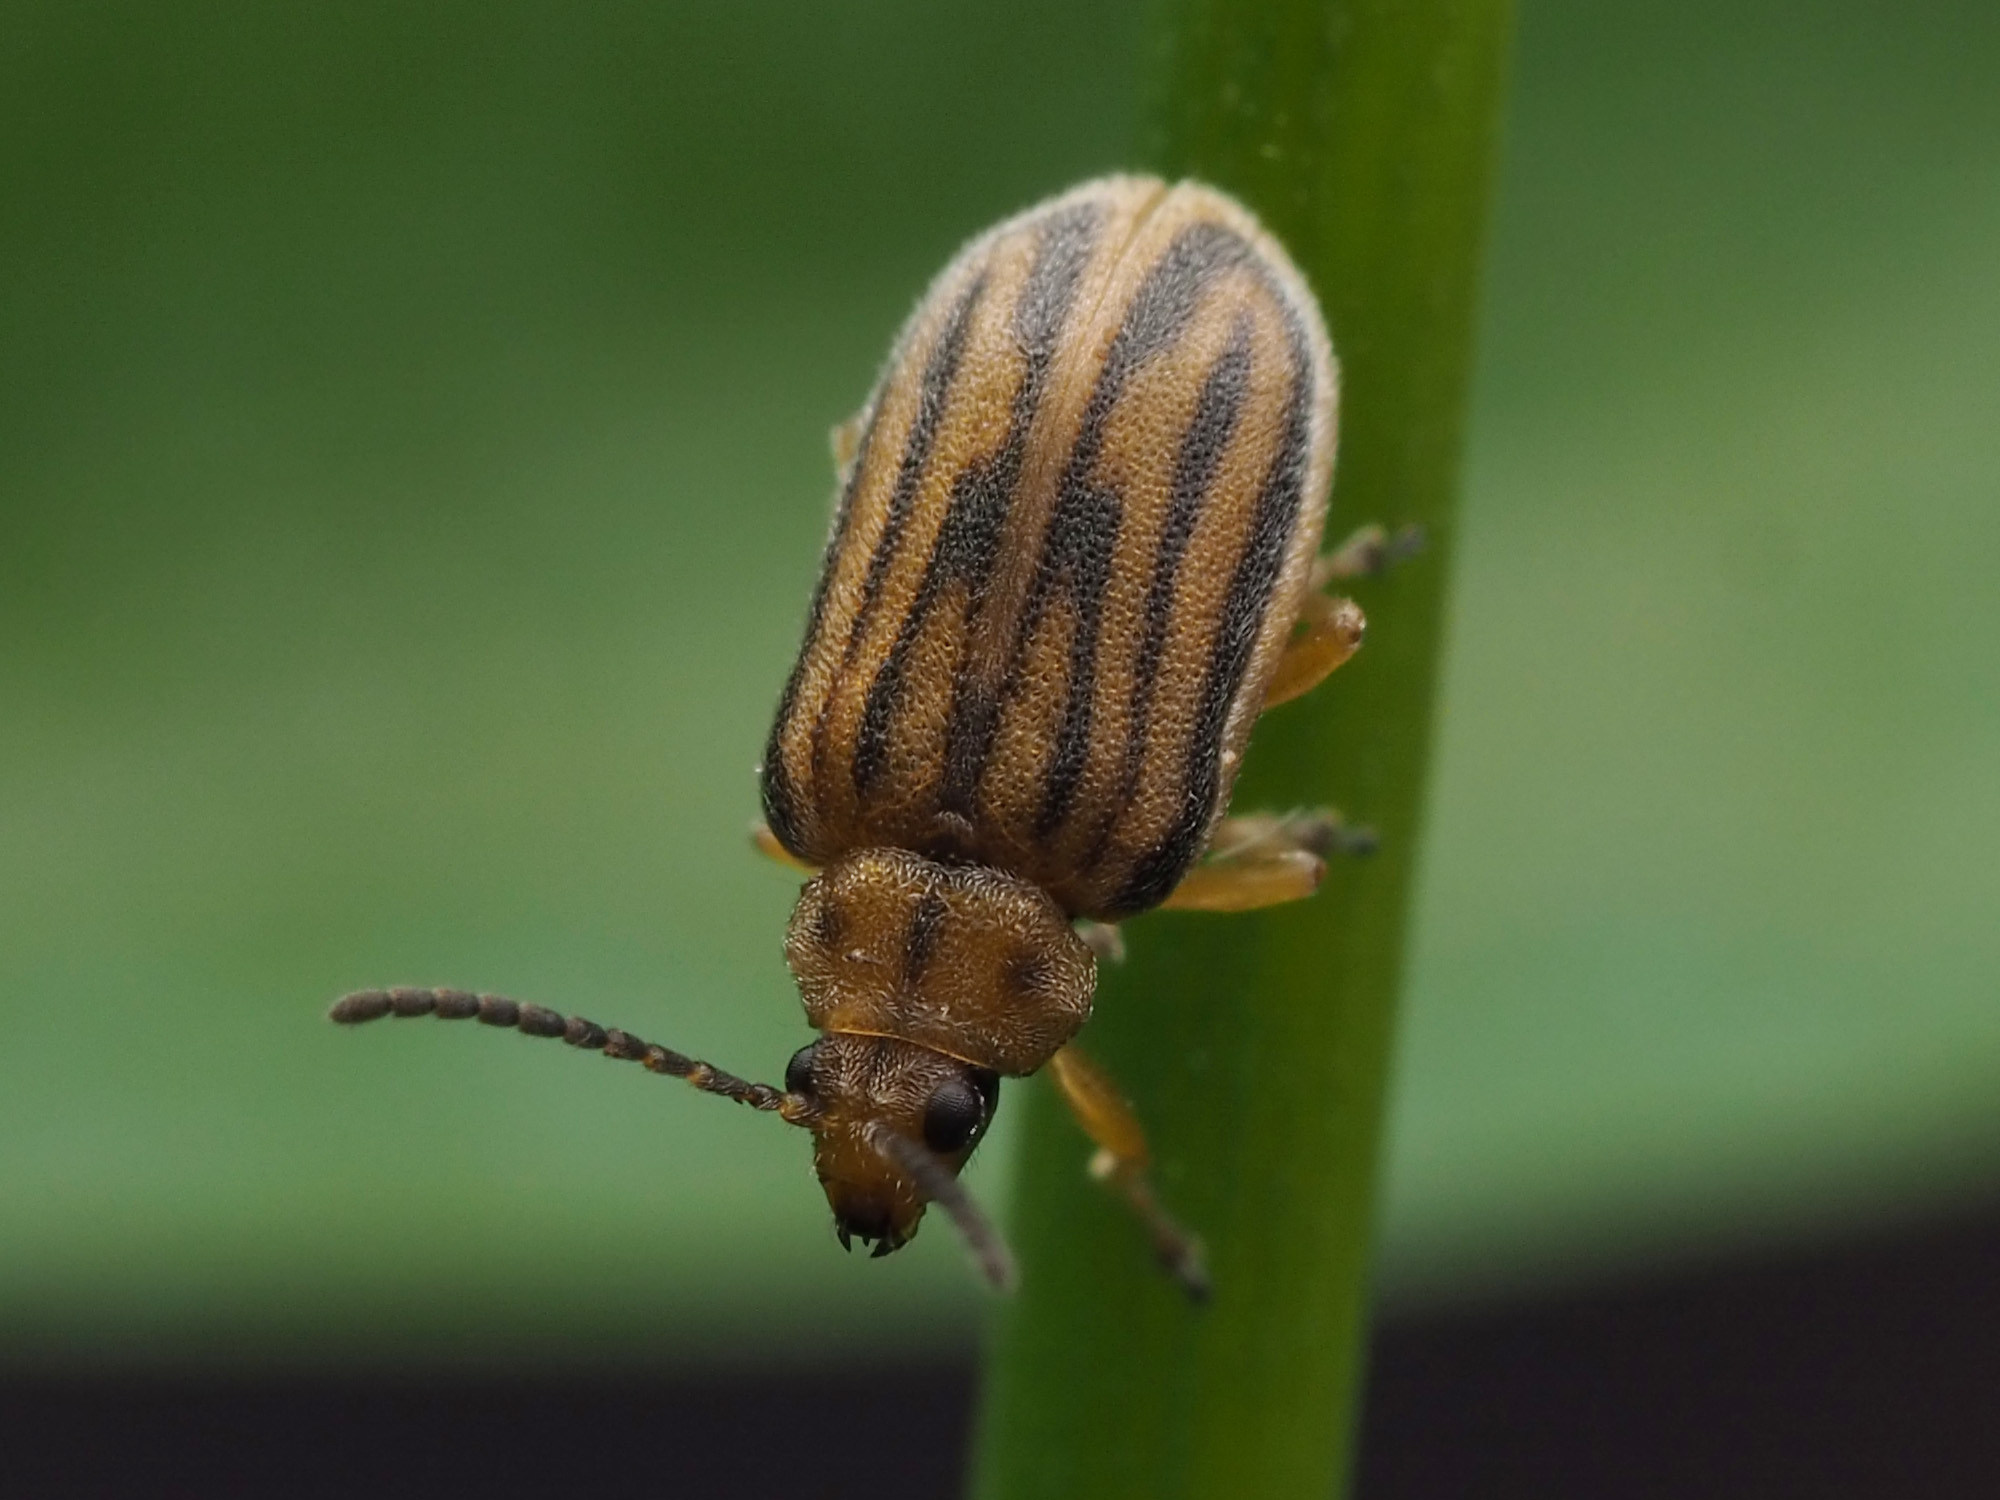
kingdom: Animalia
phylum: Arthropoda
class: Insecta
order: Coleoptera
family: Chrysomelidae
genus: Ophraella
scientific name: Ophraella communa
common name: Ragweed leaf beetle
